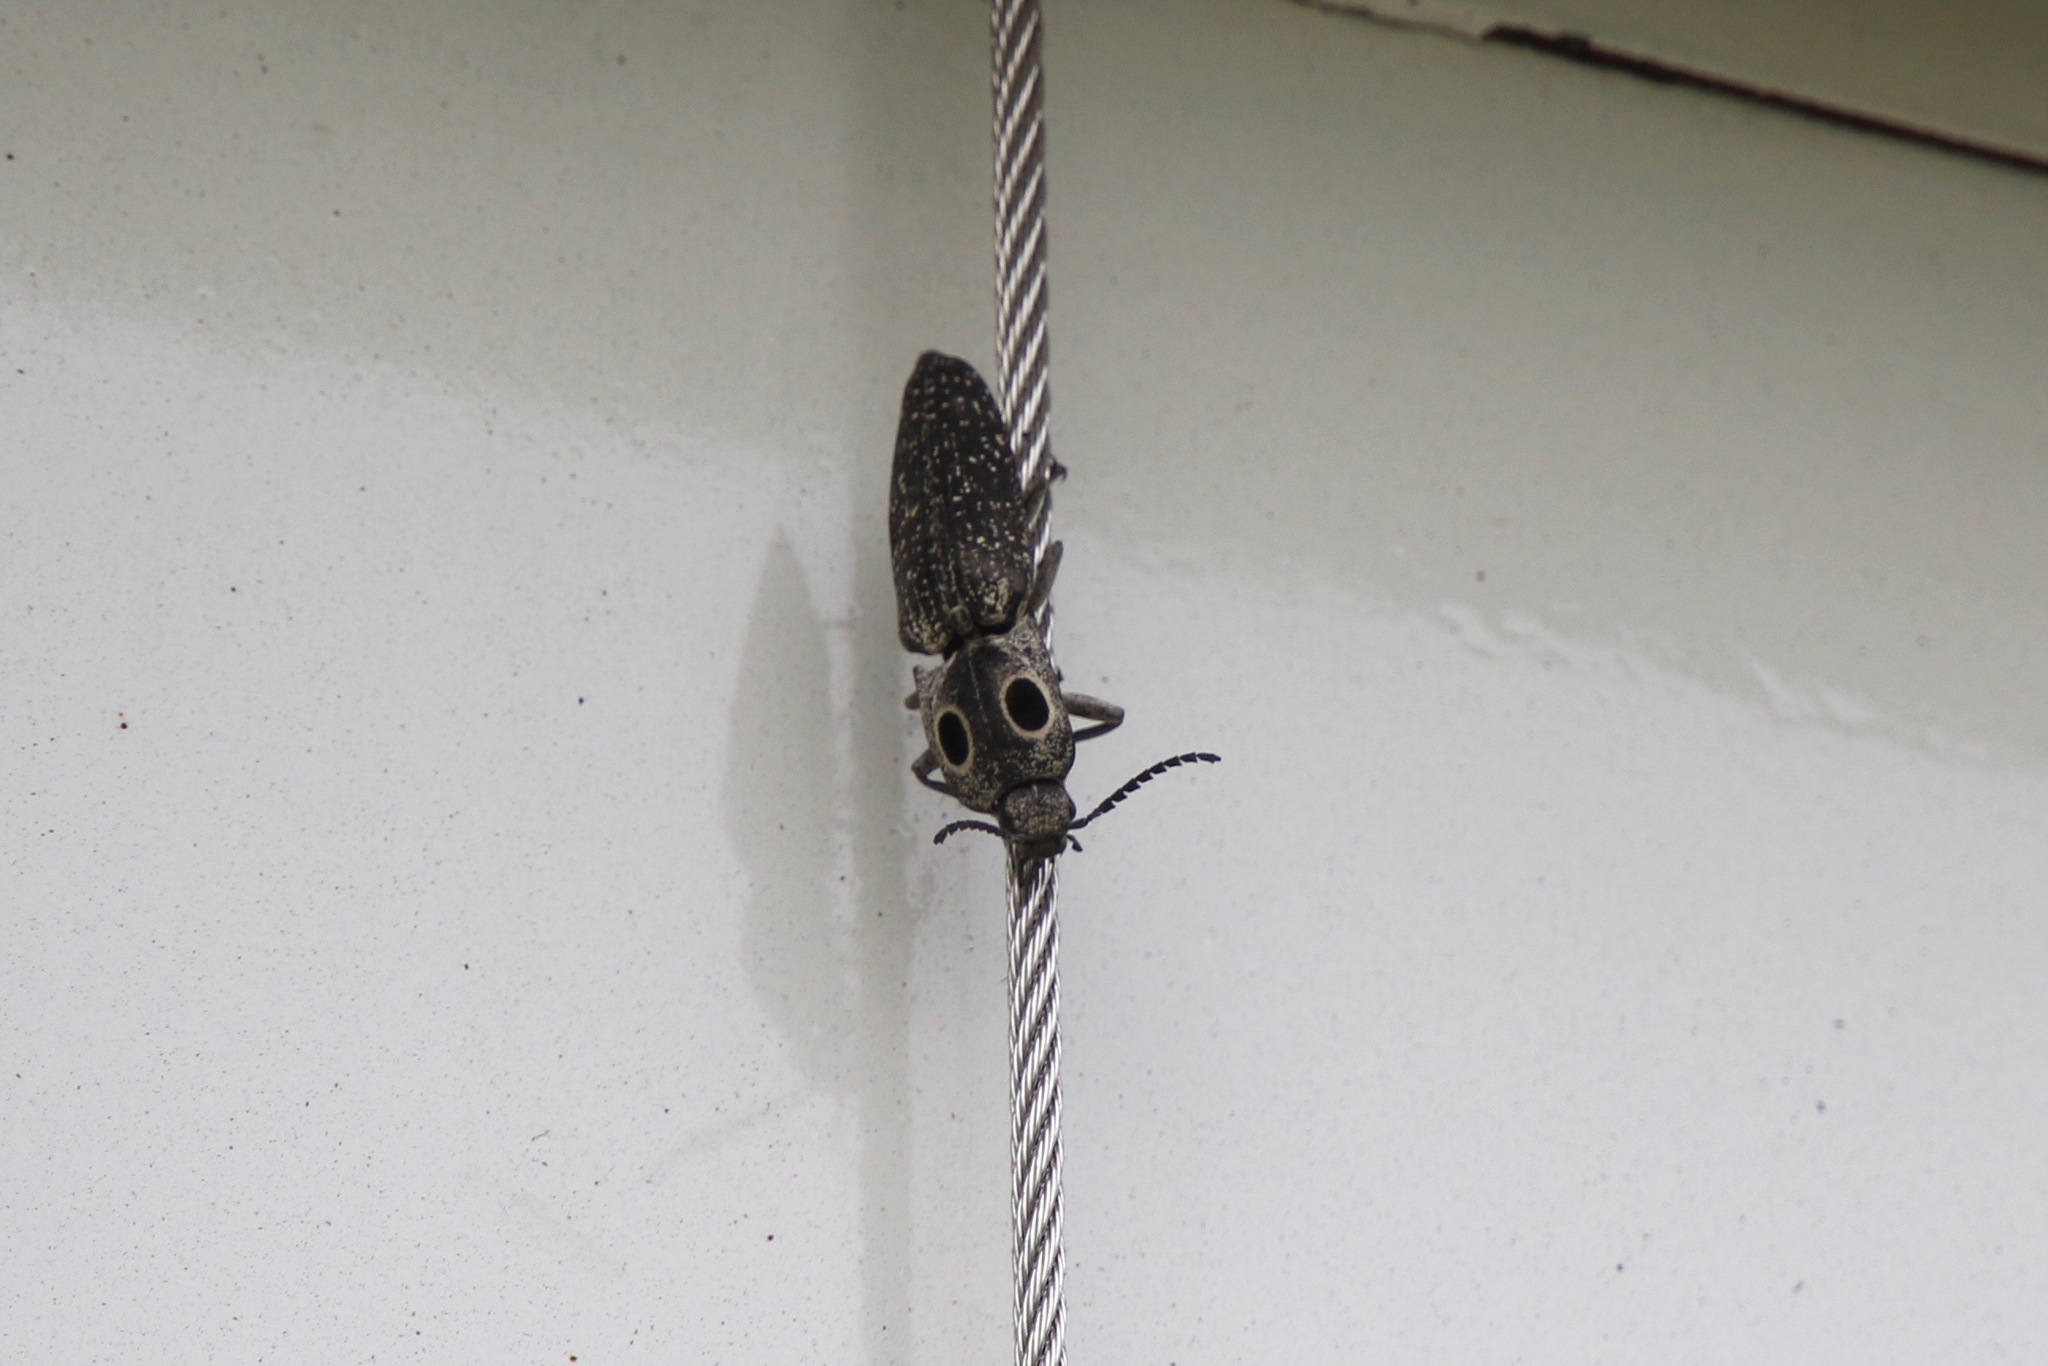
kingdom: Animalia
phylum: Arthropoda
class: Insecta
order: Coleoptera
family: Elateridae
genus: Alaus
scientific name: Alaus oculatus
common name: Eastern eyed click beetle
